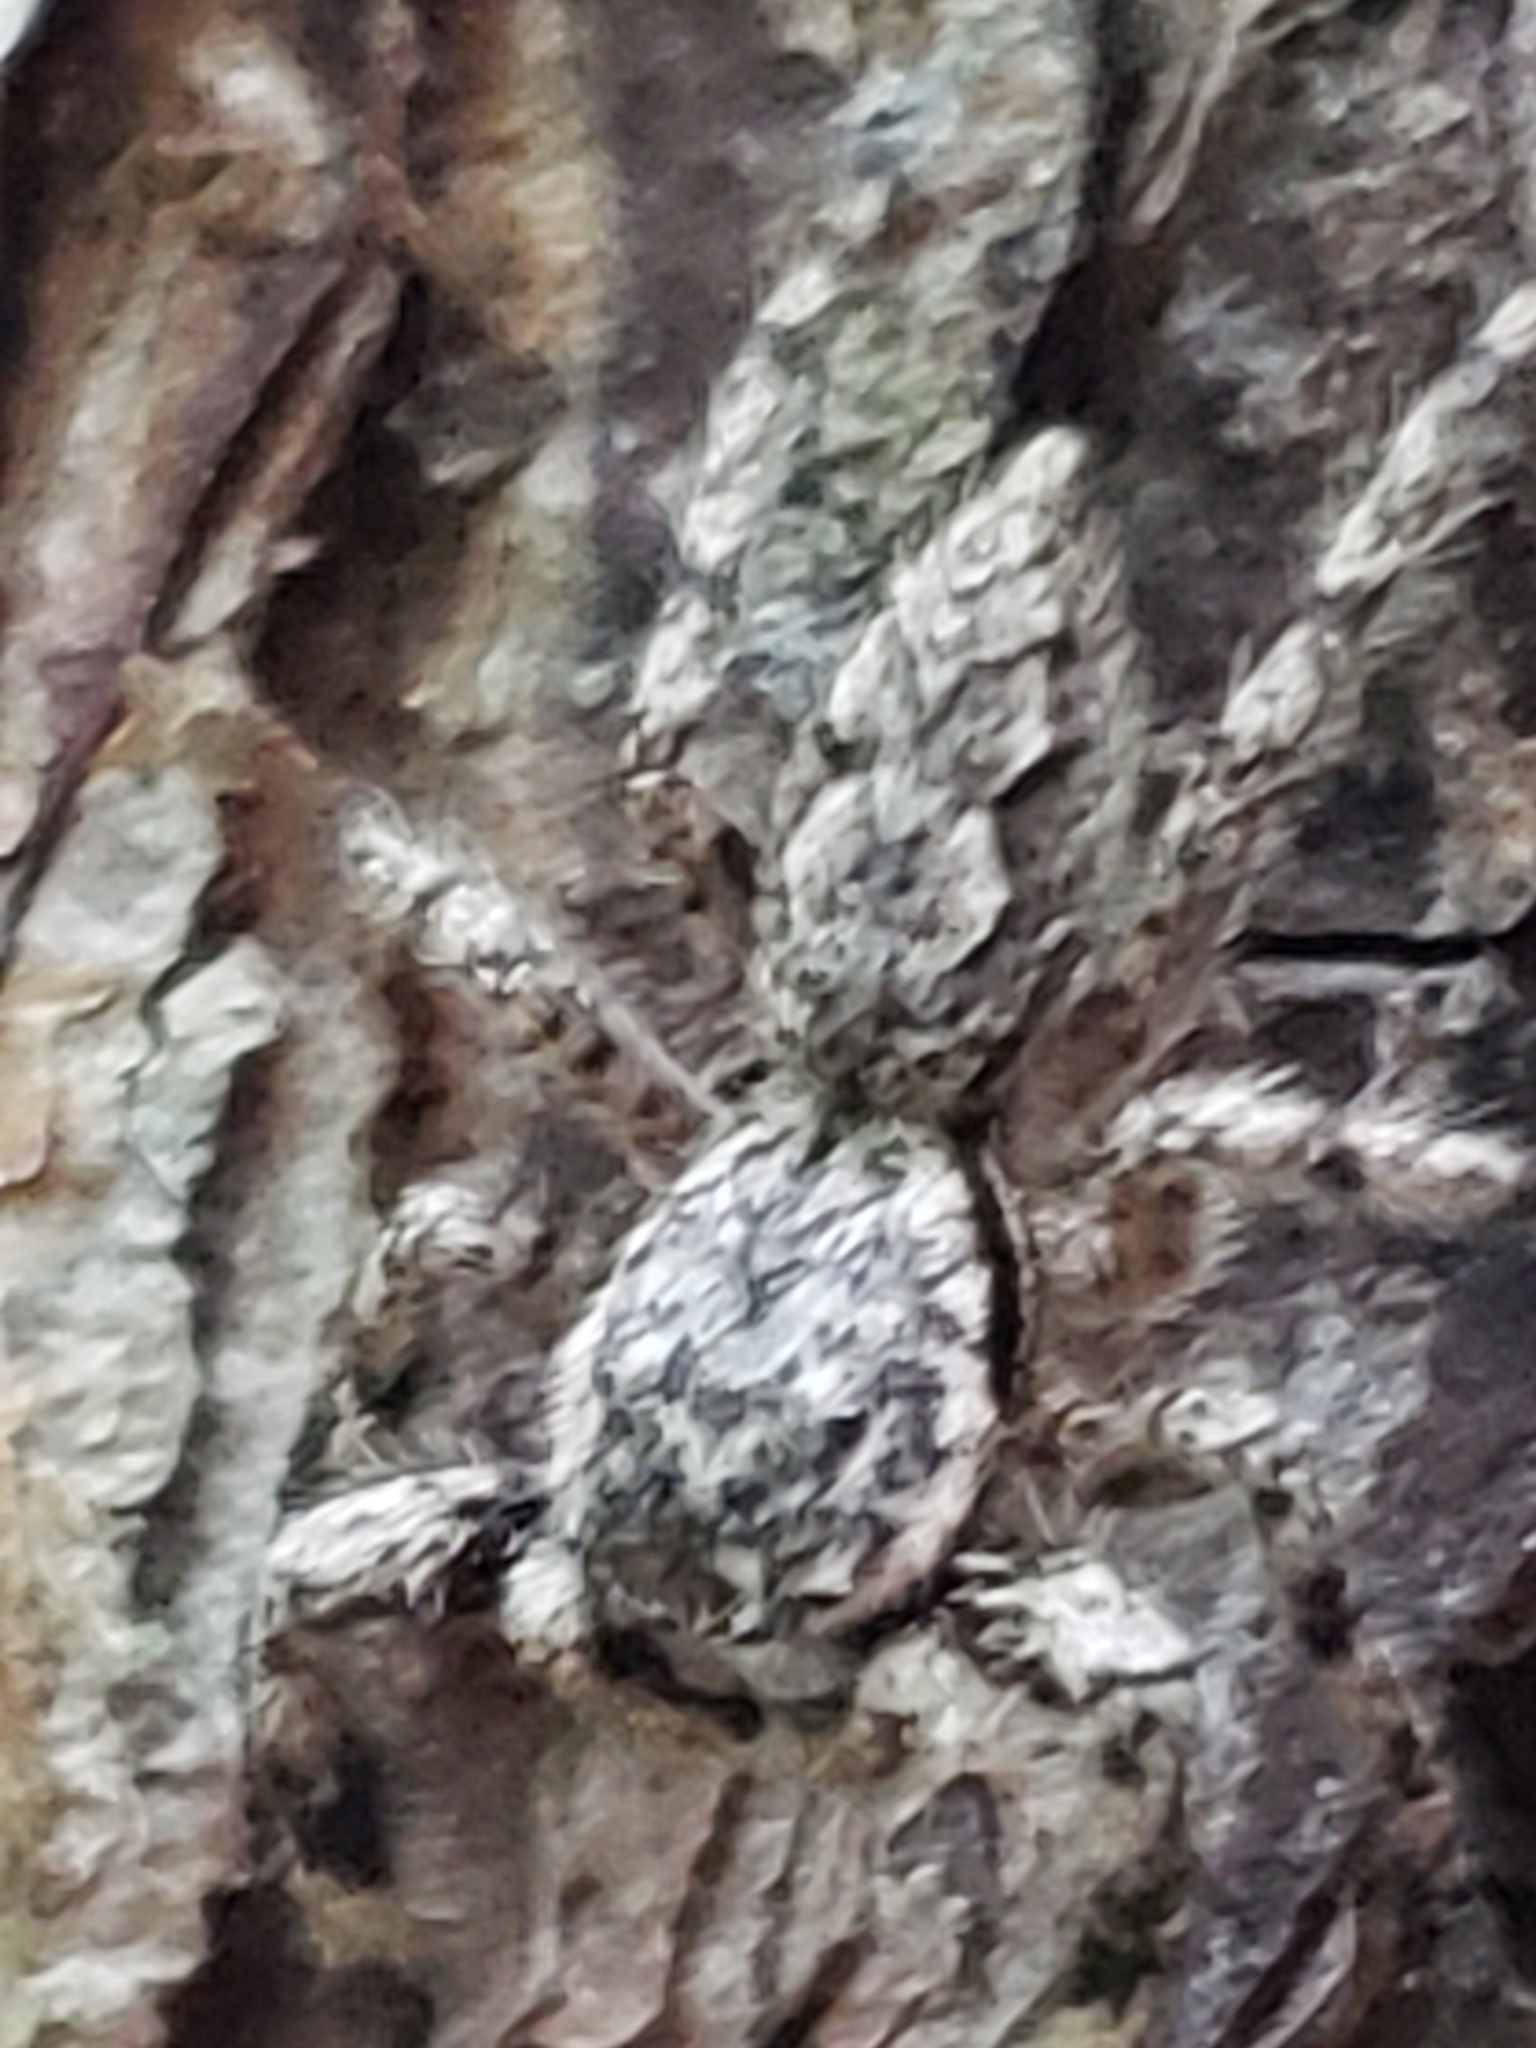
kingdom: Animalia
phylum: Arthropoda
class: Arachnida
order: Araneae
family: Salticidae
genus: Platycryptus
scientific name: Platycryptus undatus
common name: Tan jumping spider
